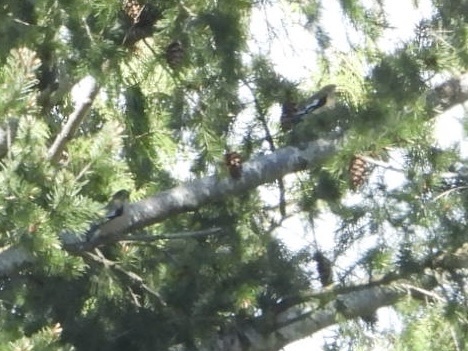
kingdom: Animalia
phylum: Chordata
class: Aves
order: Passeriformes
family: Fringillidae
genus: Hesperiphona
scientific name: Hesperiphona vespertina
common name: Evening grosbeak
